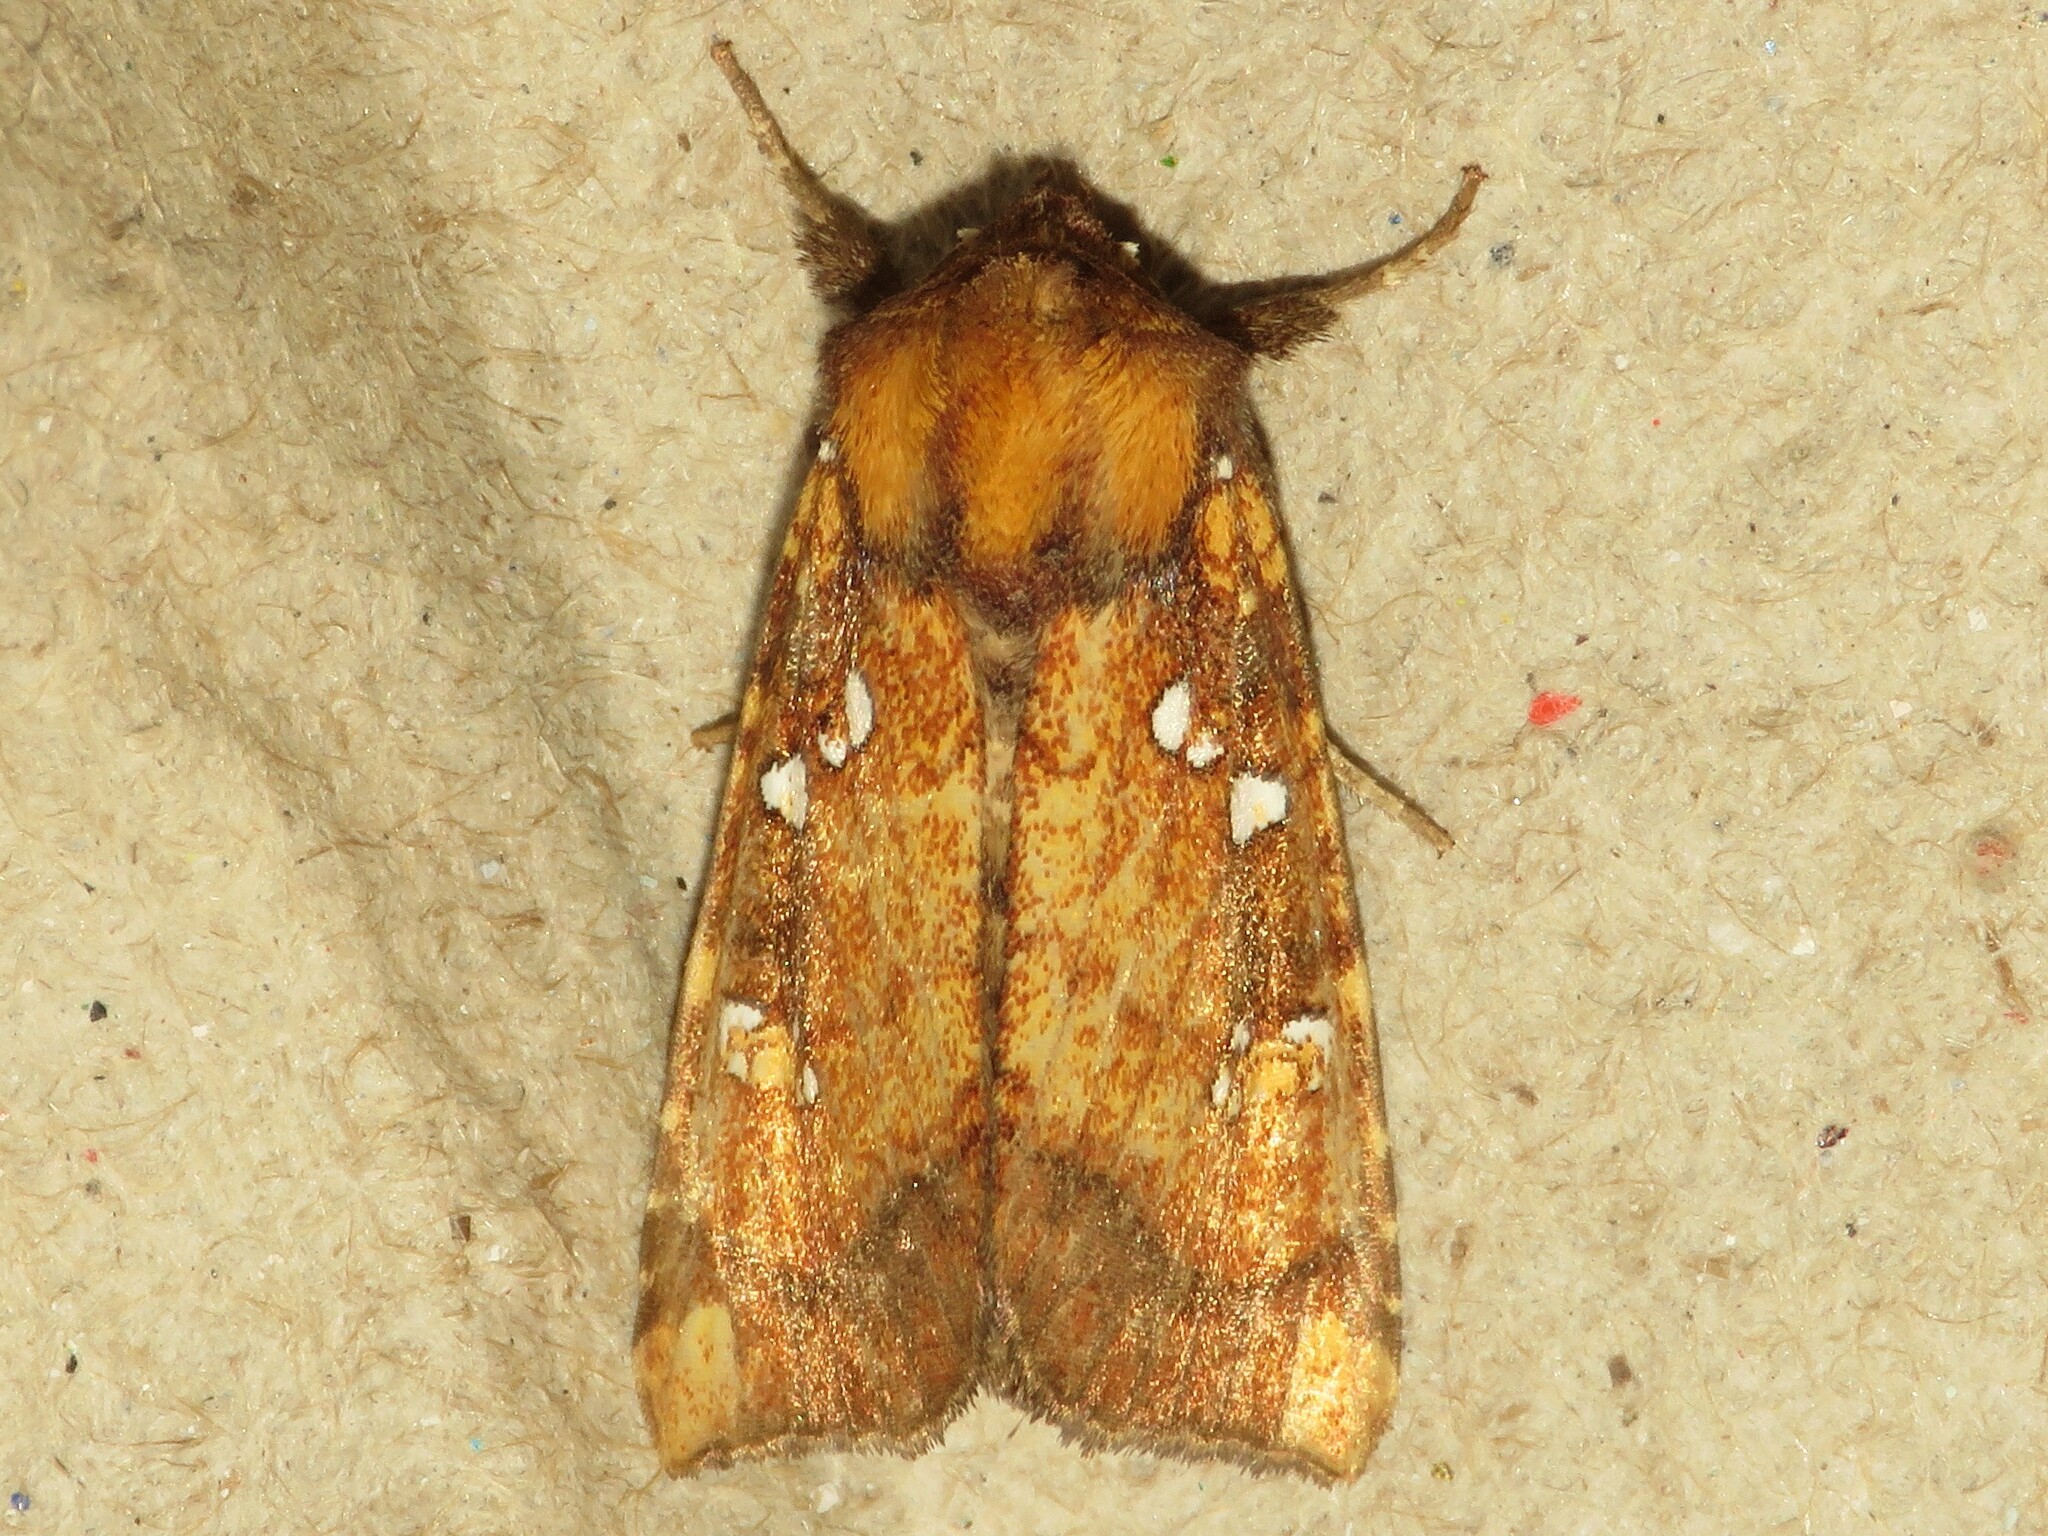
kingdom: Animalia
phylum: Arthropoda
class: Insecta
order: Lepidoptera
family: Noctuidae
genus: Papaipema
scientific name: Papaipema arctivorens
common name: Northern burdock borer moth
